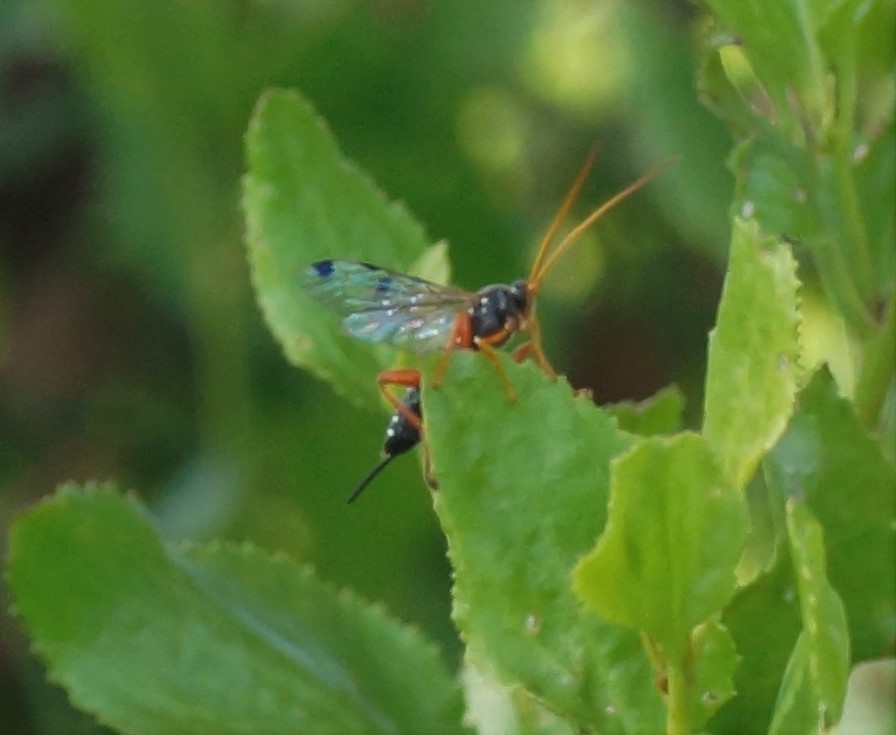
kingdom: Animalia
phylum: Arthropoda
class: Insecta
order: Hymenoptera
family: Ichneumonidae
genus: Echthromorpha
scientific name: Echthromorpha intricatoria
